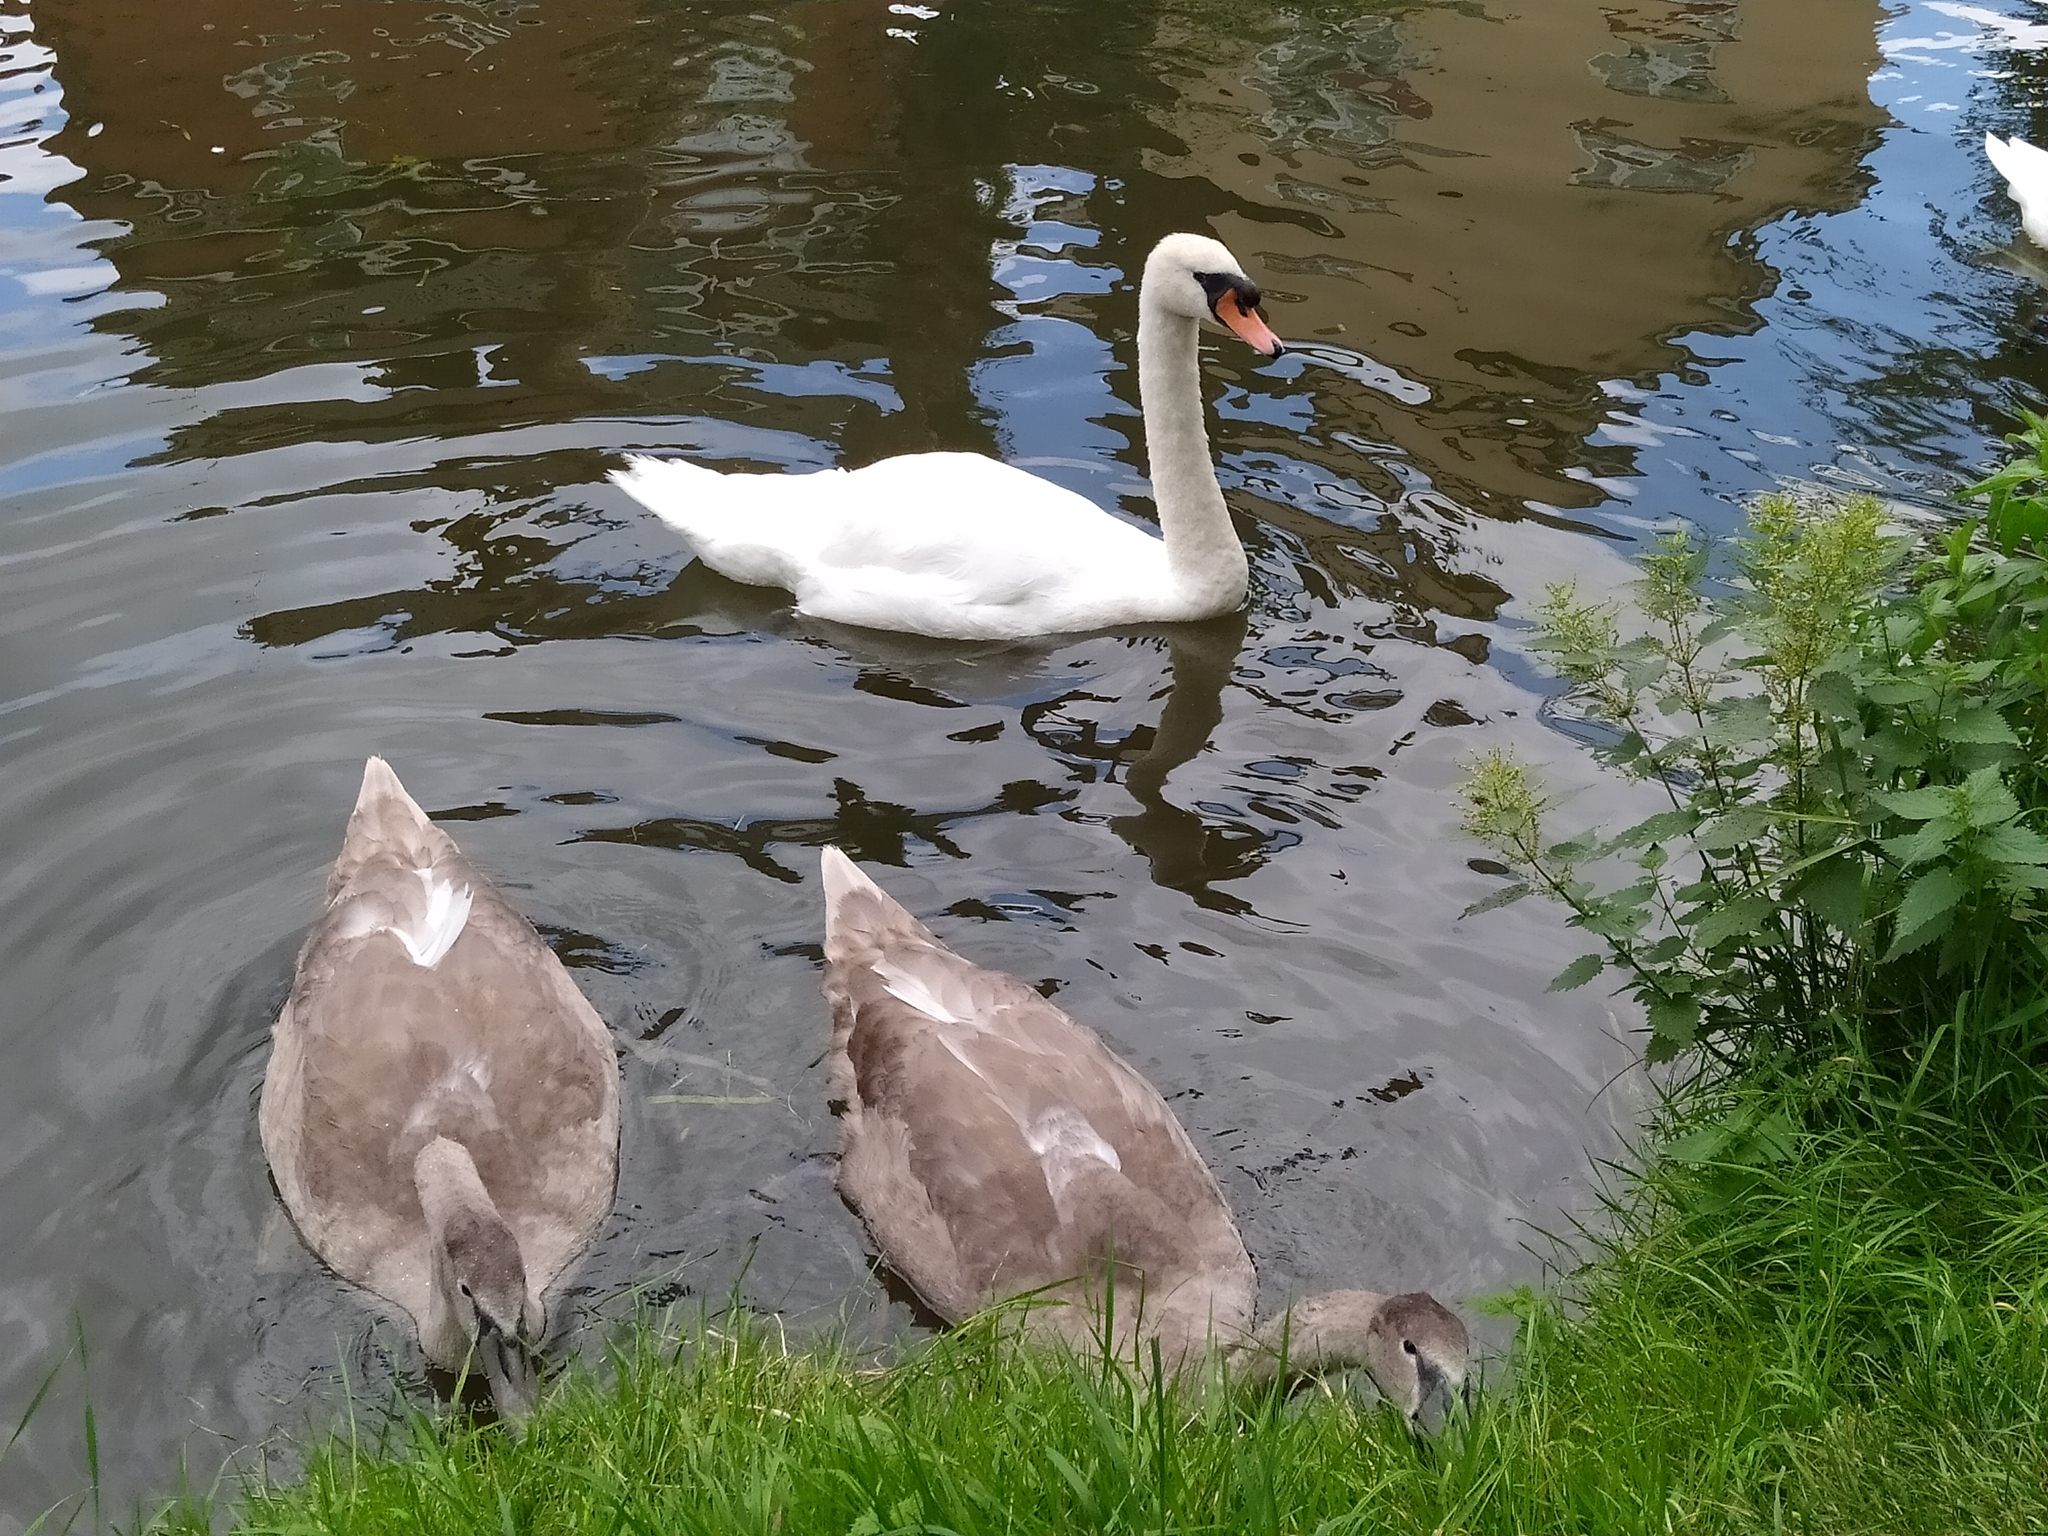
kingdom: Animalia
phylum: Chordata
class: Aves
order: Anseriformes
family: Anatidae
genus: Cygnus
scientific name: Cygnus olor
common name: Mute swan
